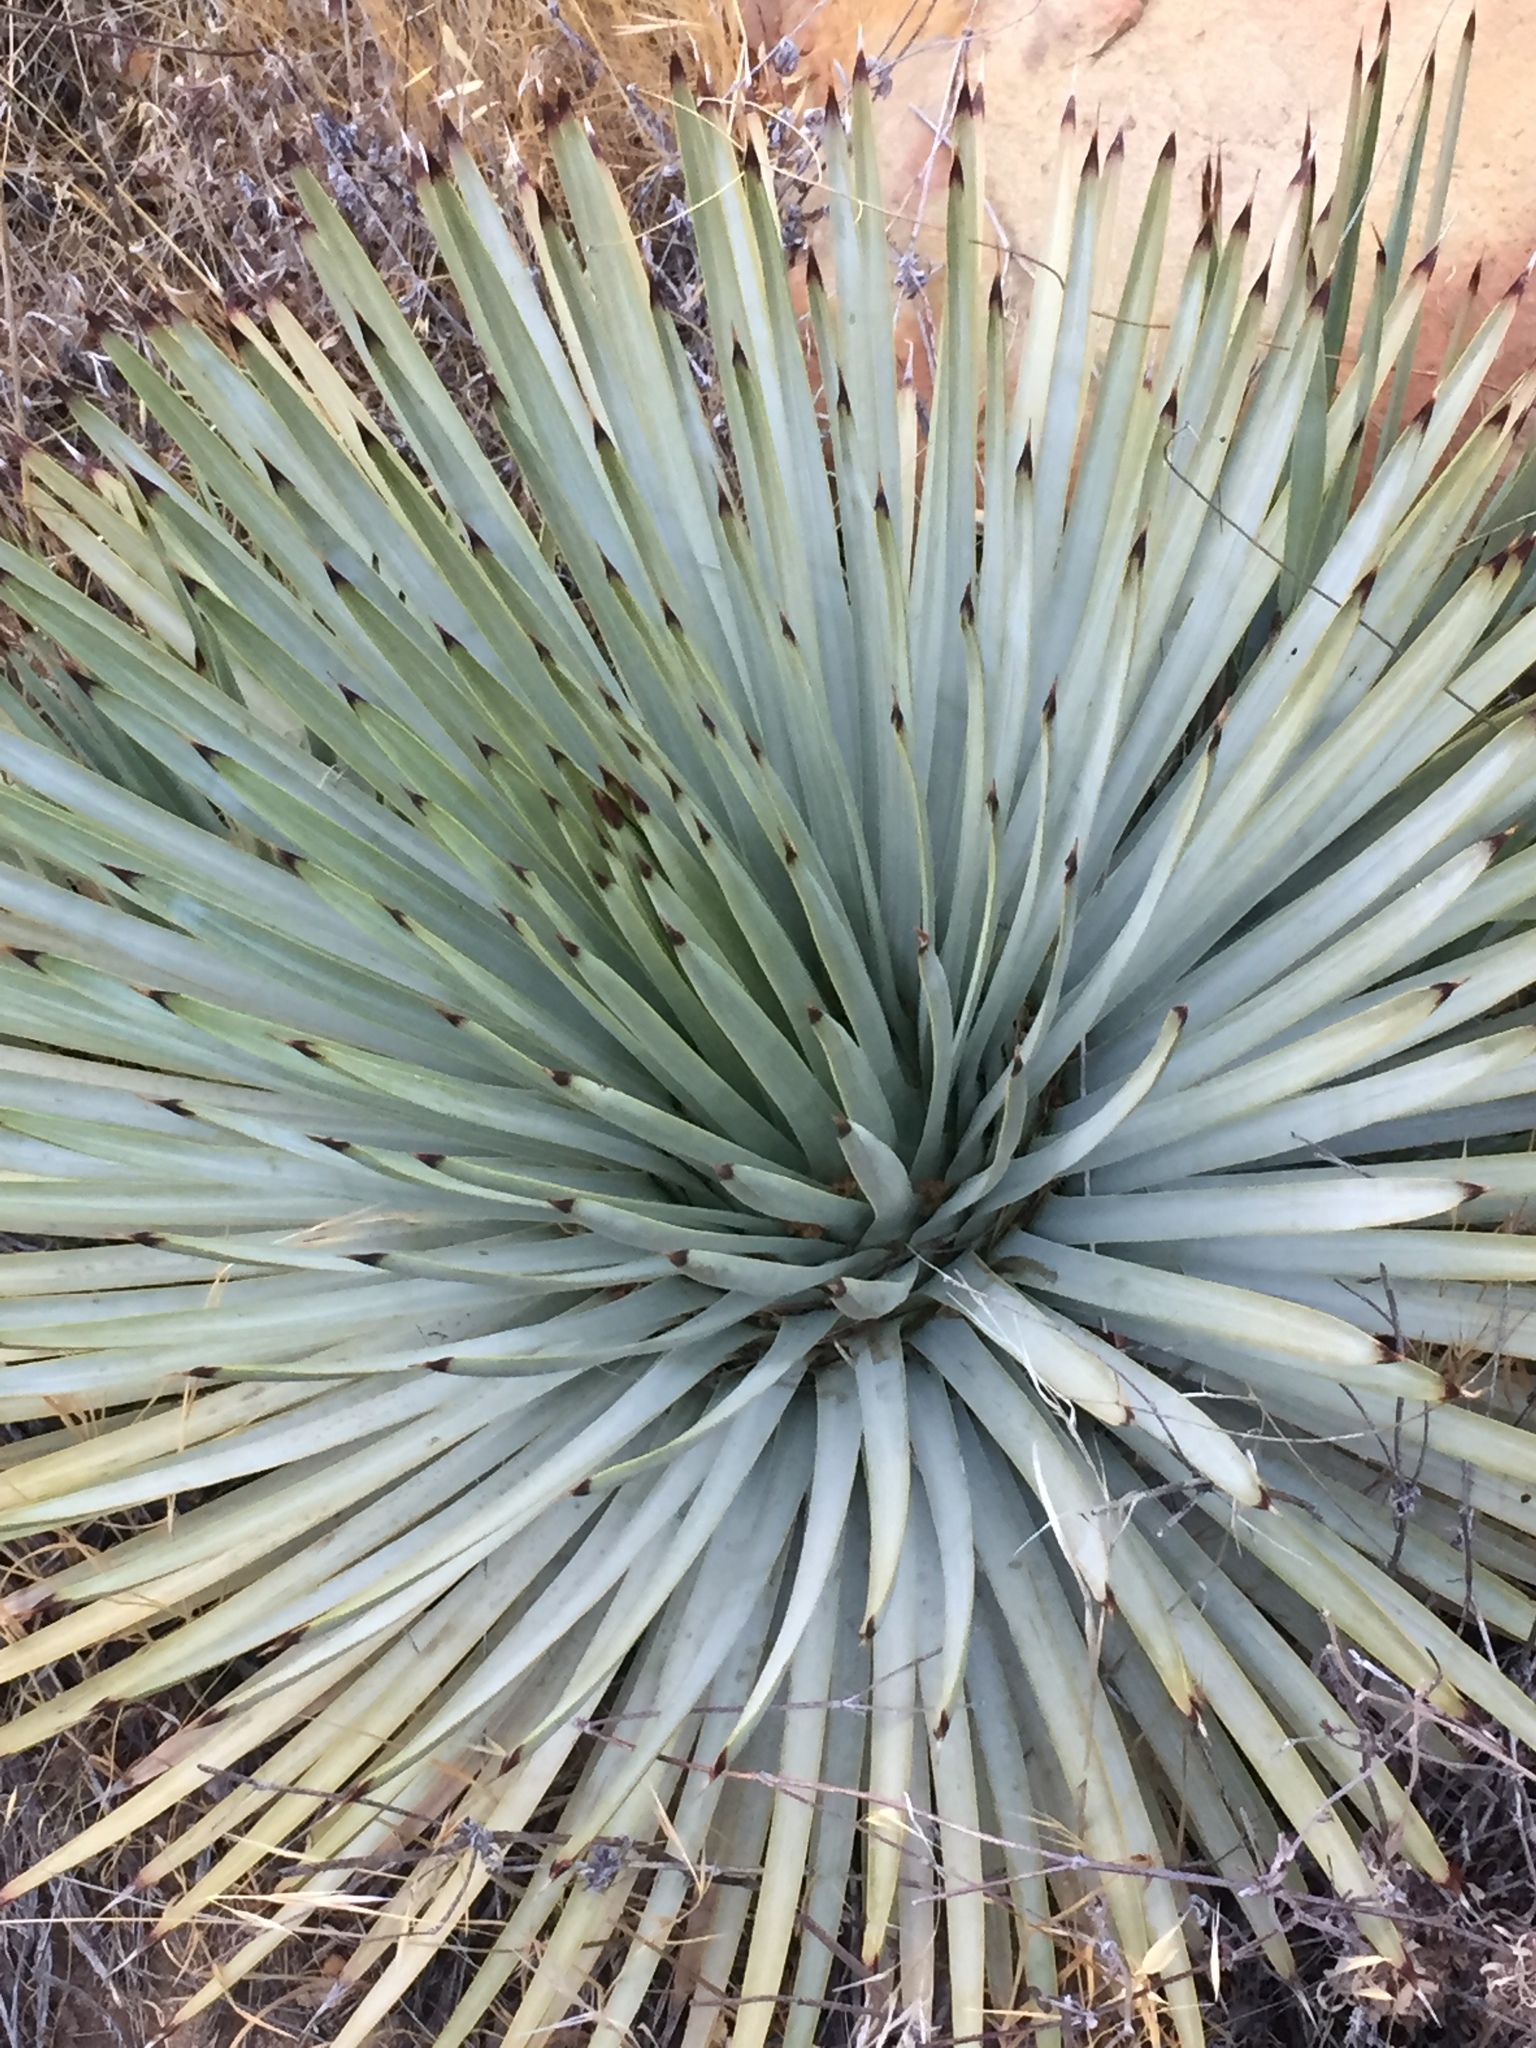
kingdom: Plantae
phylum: Tracheophyta
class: Liliopsida
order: Asparagales
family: Asparagaceae
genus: Hesperoyucca
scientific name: Hesperoyucca whipplei
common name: Our lord's-candle
